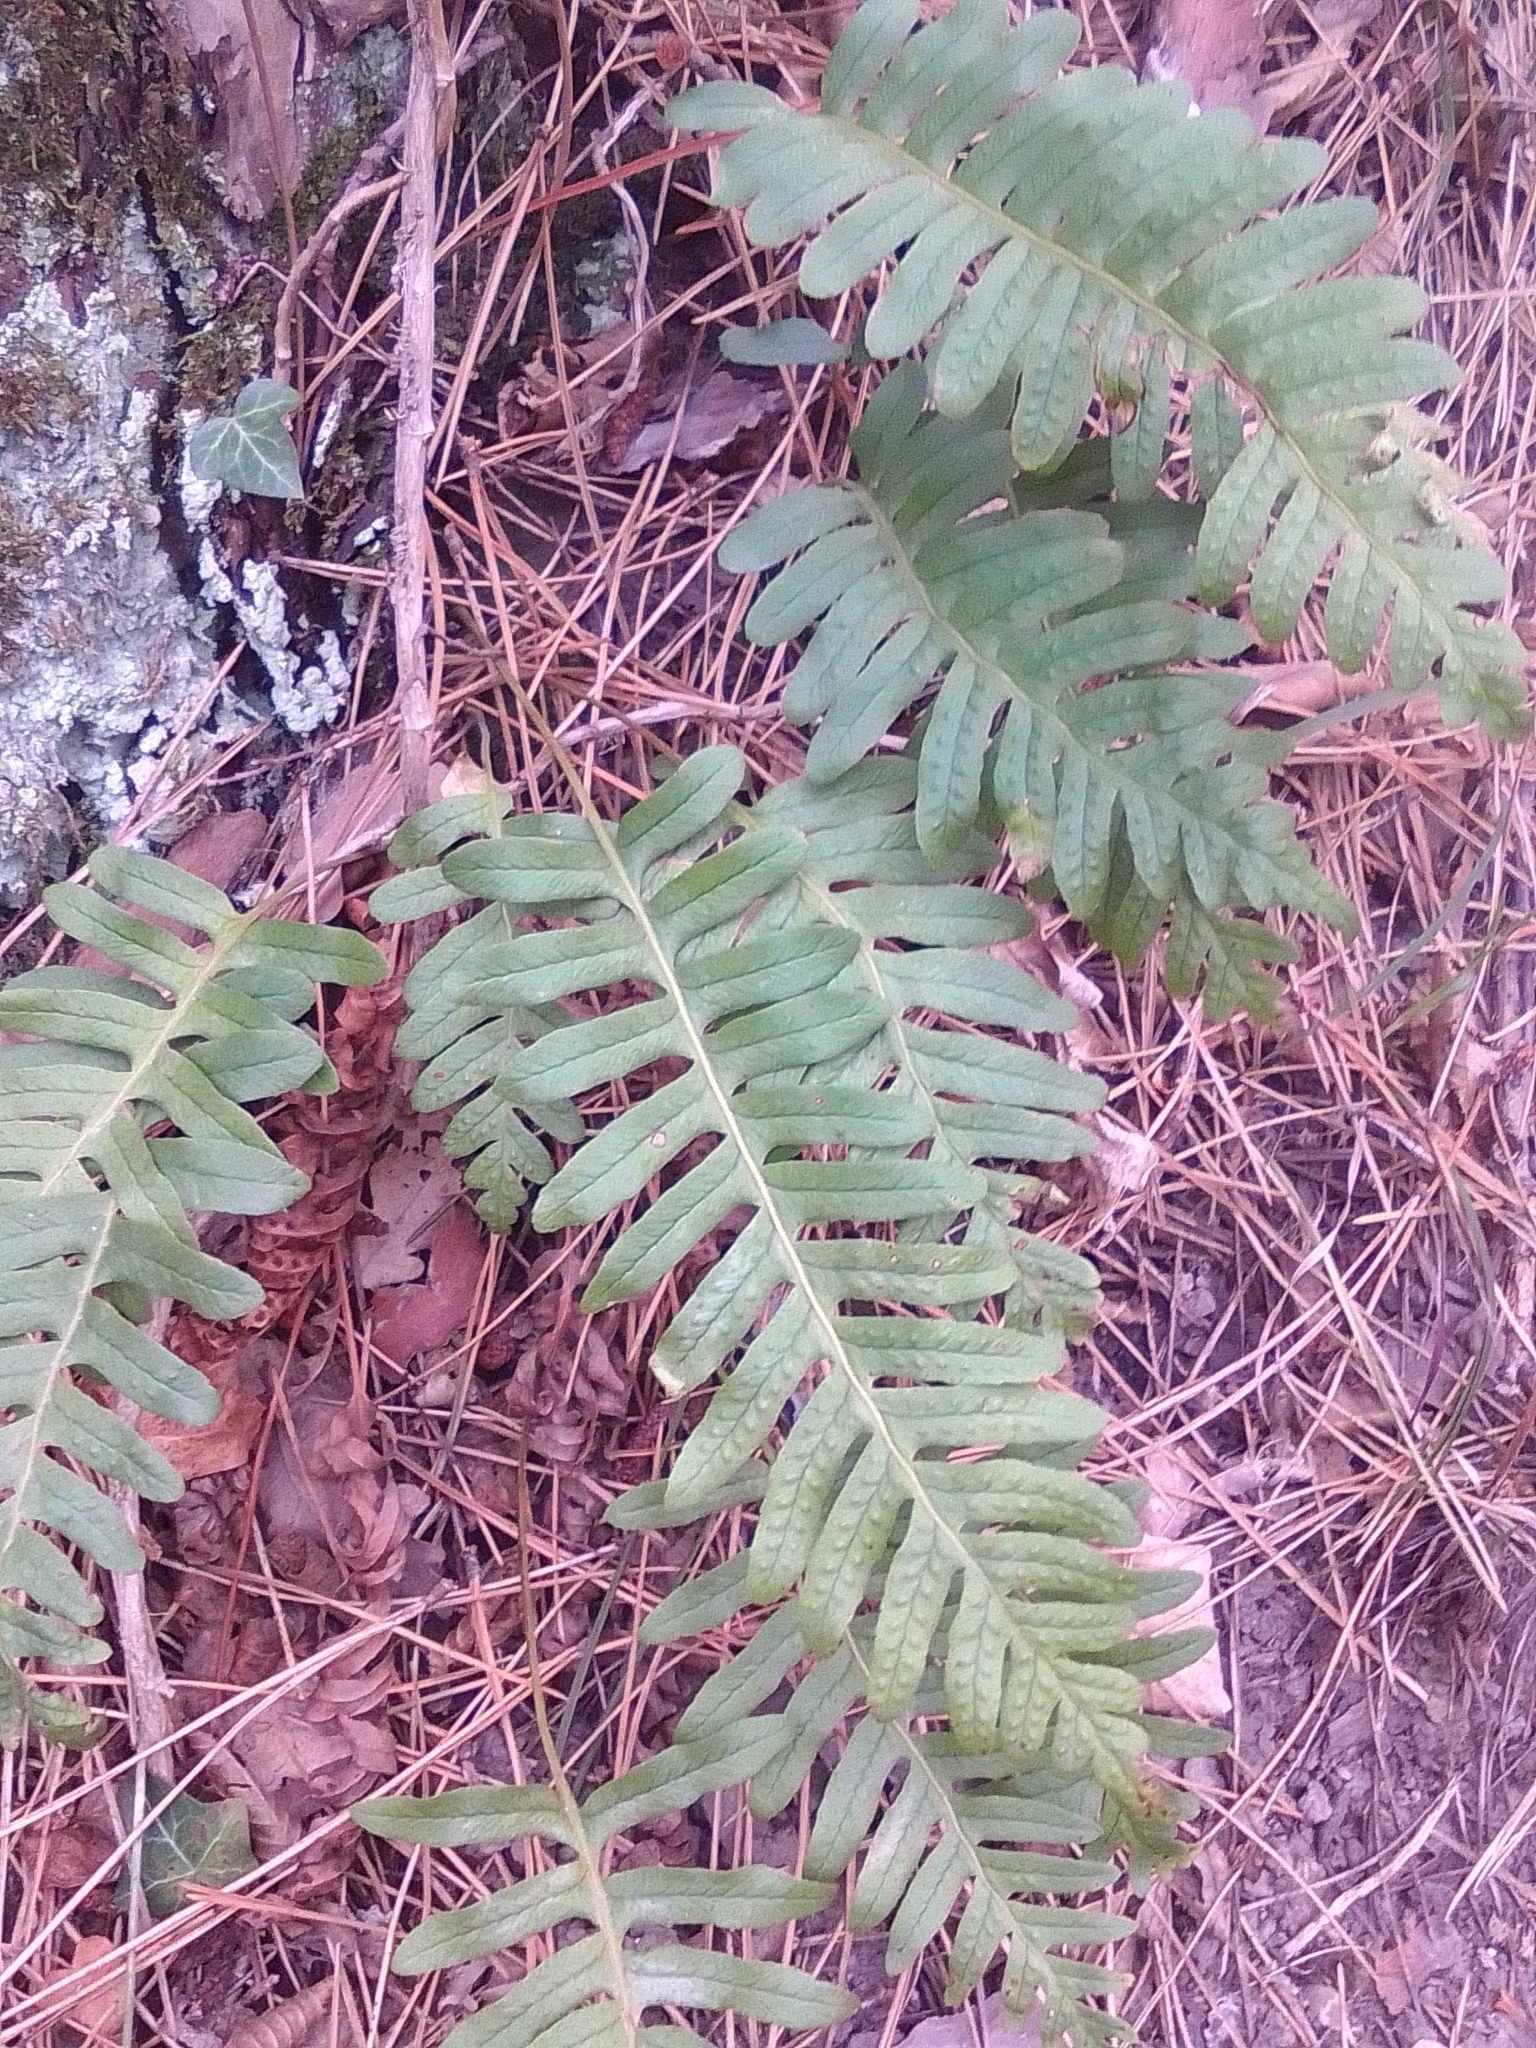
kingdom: Plantae
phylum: Tracheophyta
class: Polypodiopsida
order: Polypodiales
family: Polypodiaceae
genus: Polypodium
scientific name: Polypodium vulgare
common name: Common polypody
